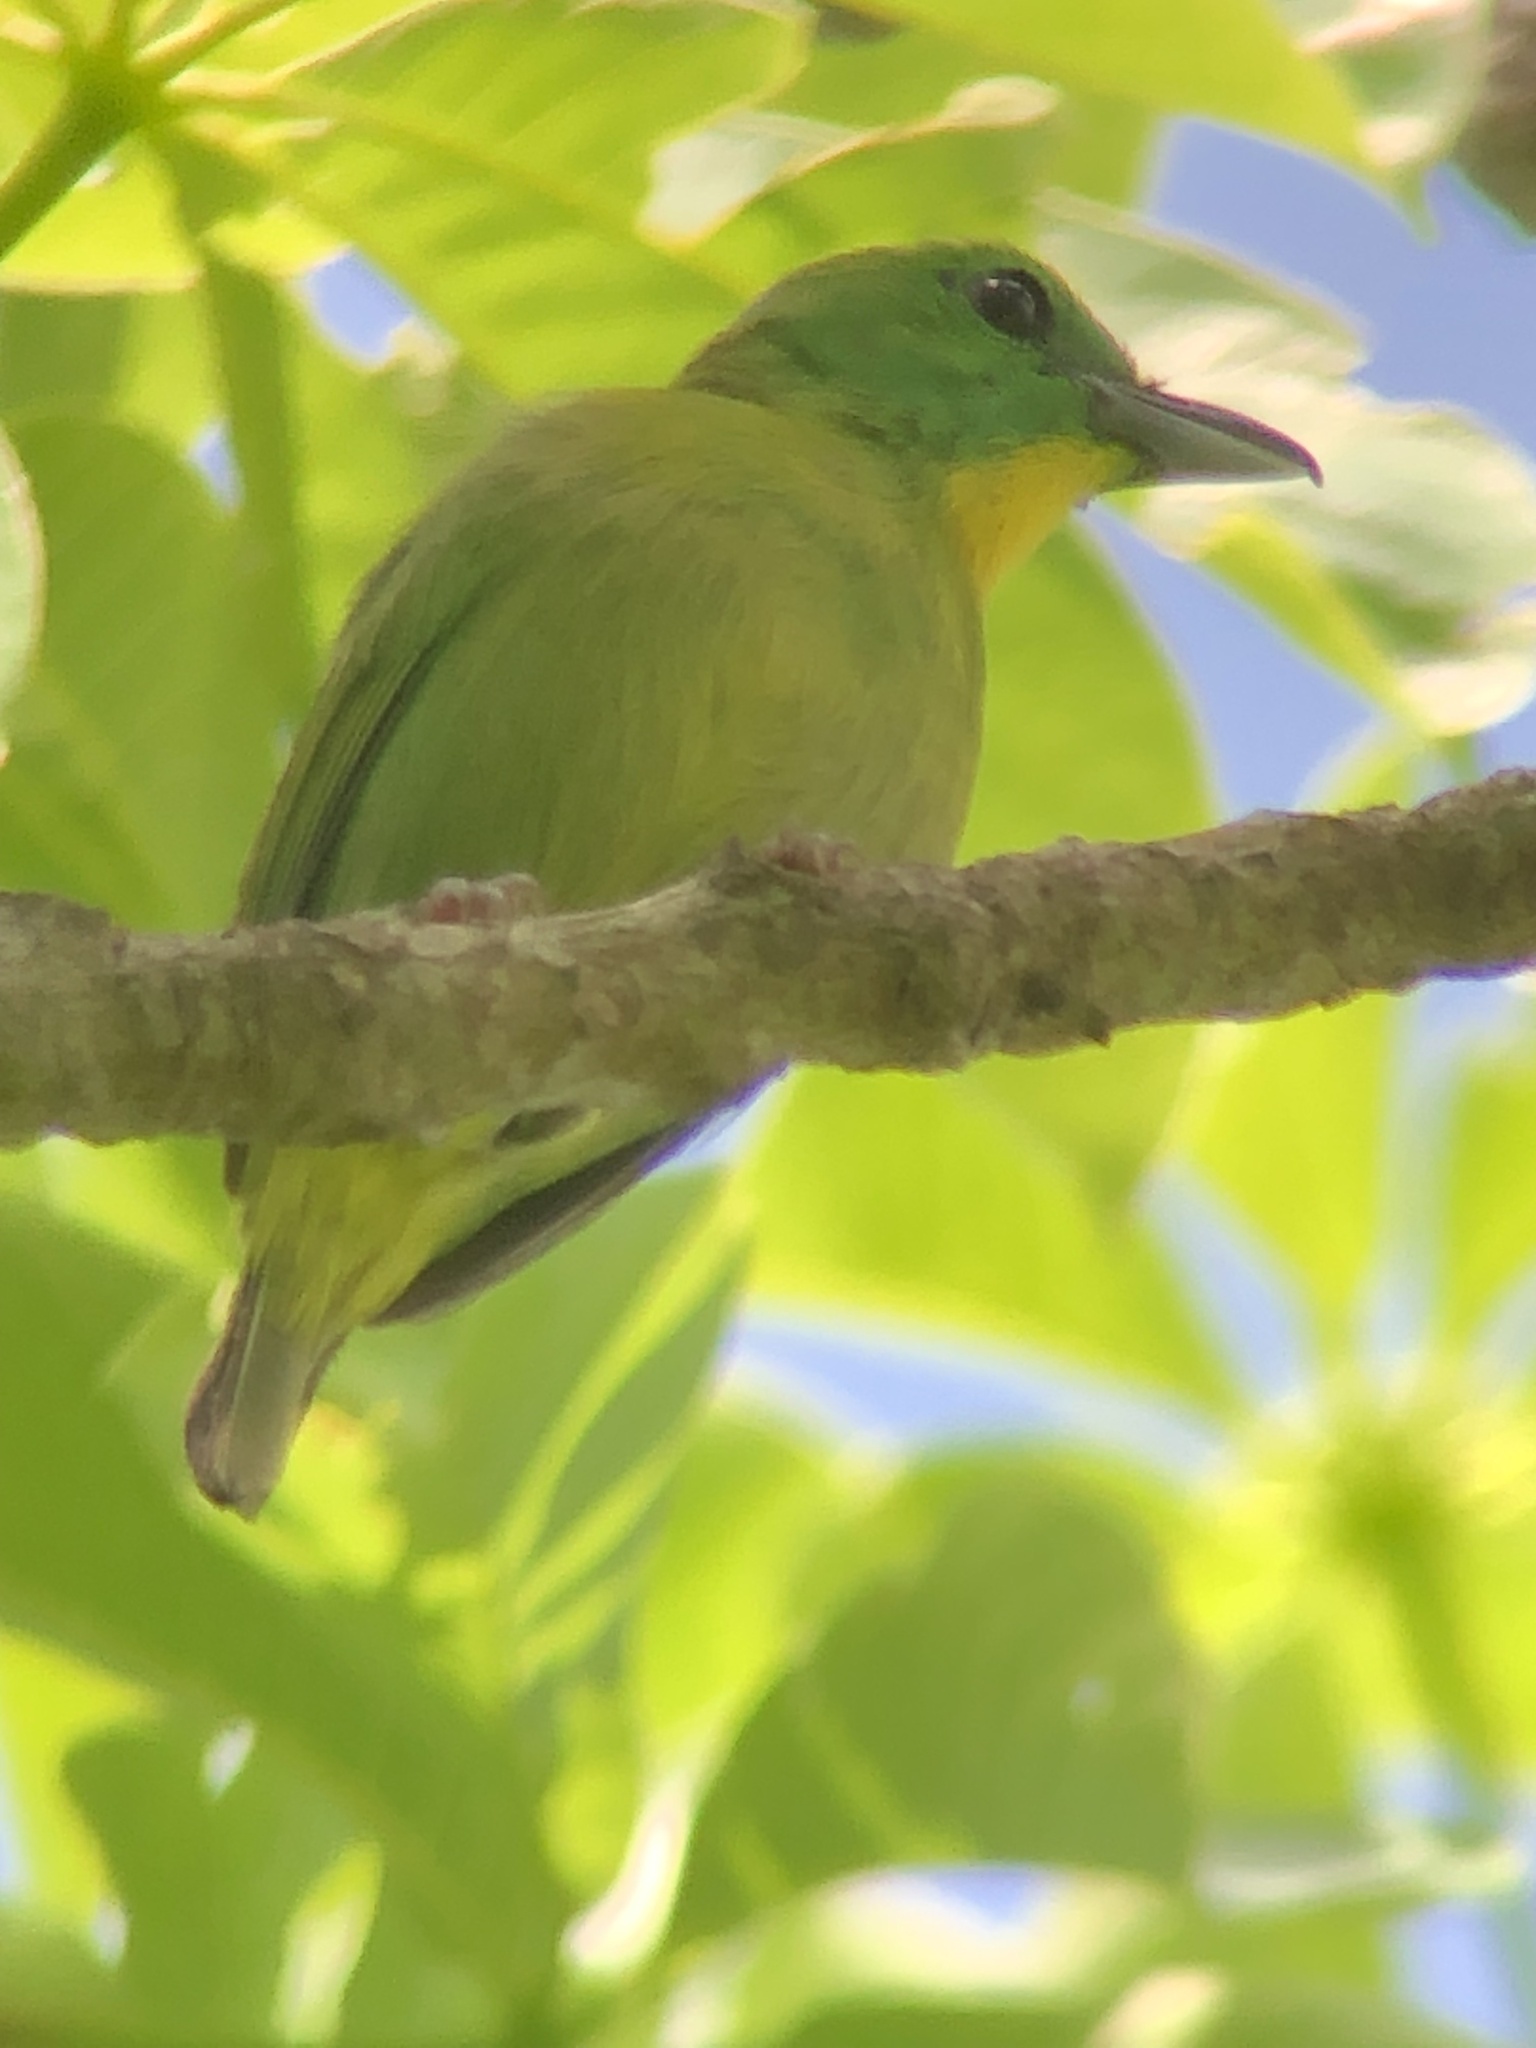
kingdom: Animalia
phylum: Chordata
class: Aves
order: Passeriformes
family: Vireonidae
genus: Vireolanius
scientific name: Vireolanius pulchellus
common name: Green shrike-vireo
